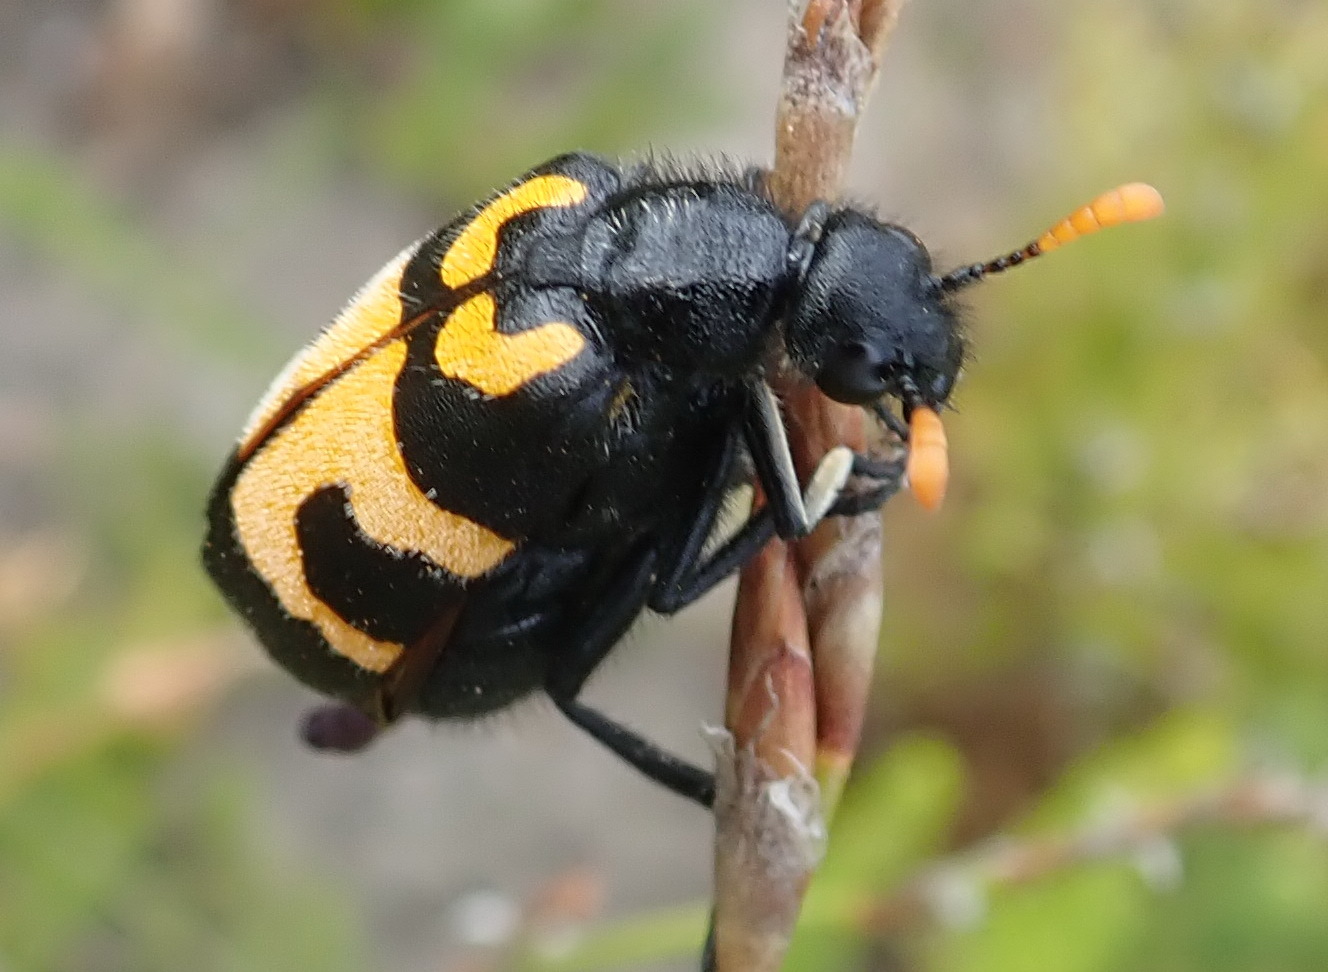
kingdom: Animalia
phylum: Arthropoda
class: Insecta
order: Coleoptera
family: Meloidae
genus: Meloe
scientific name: Meloe lunata
